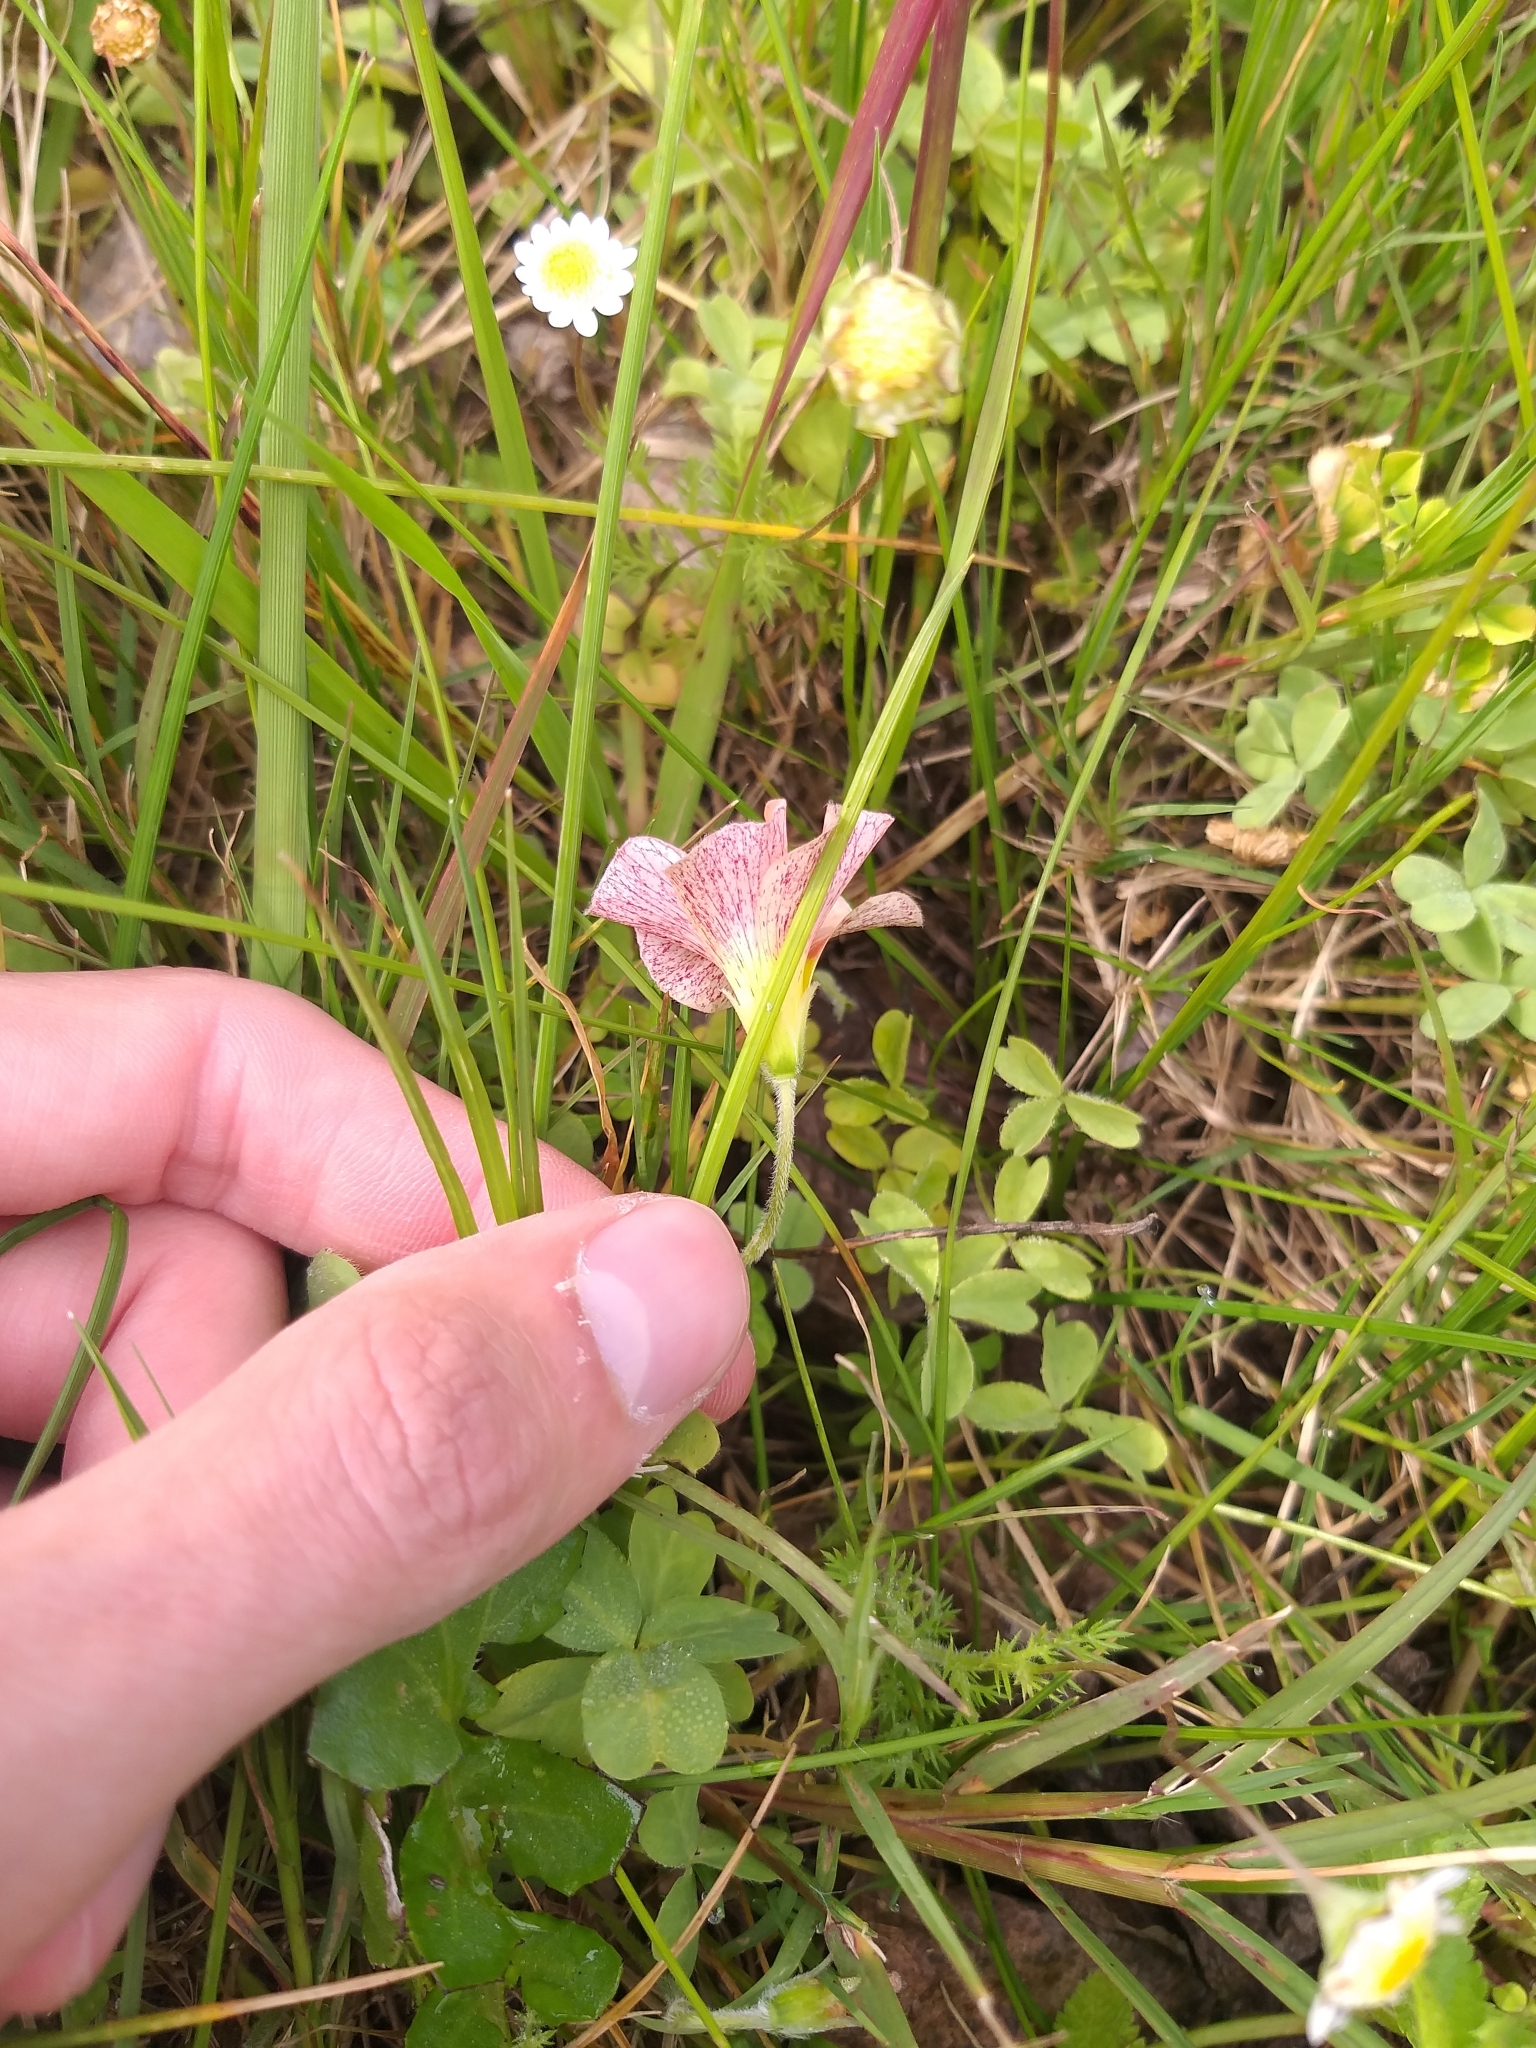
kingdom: Plantae
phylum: Tracheophyta
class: Magnoliopsida
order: Oxalidales
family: Oxalidaceae
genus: Oxalis
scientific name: Oxalis obtusa
